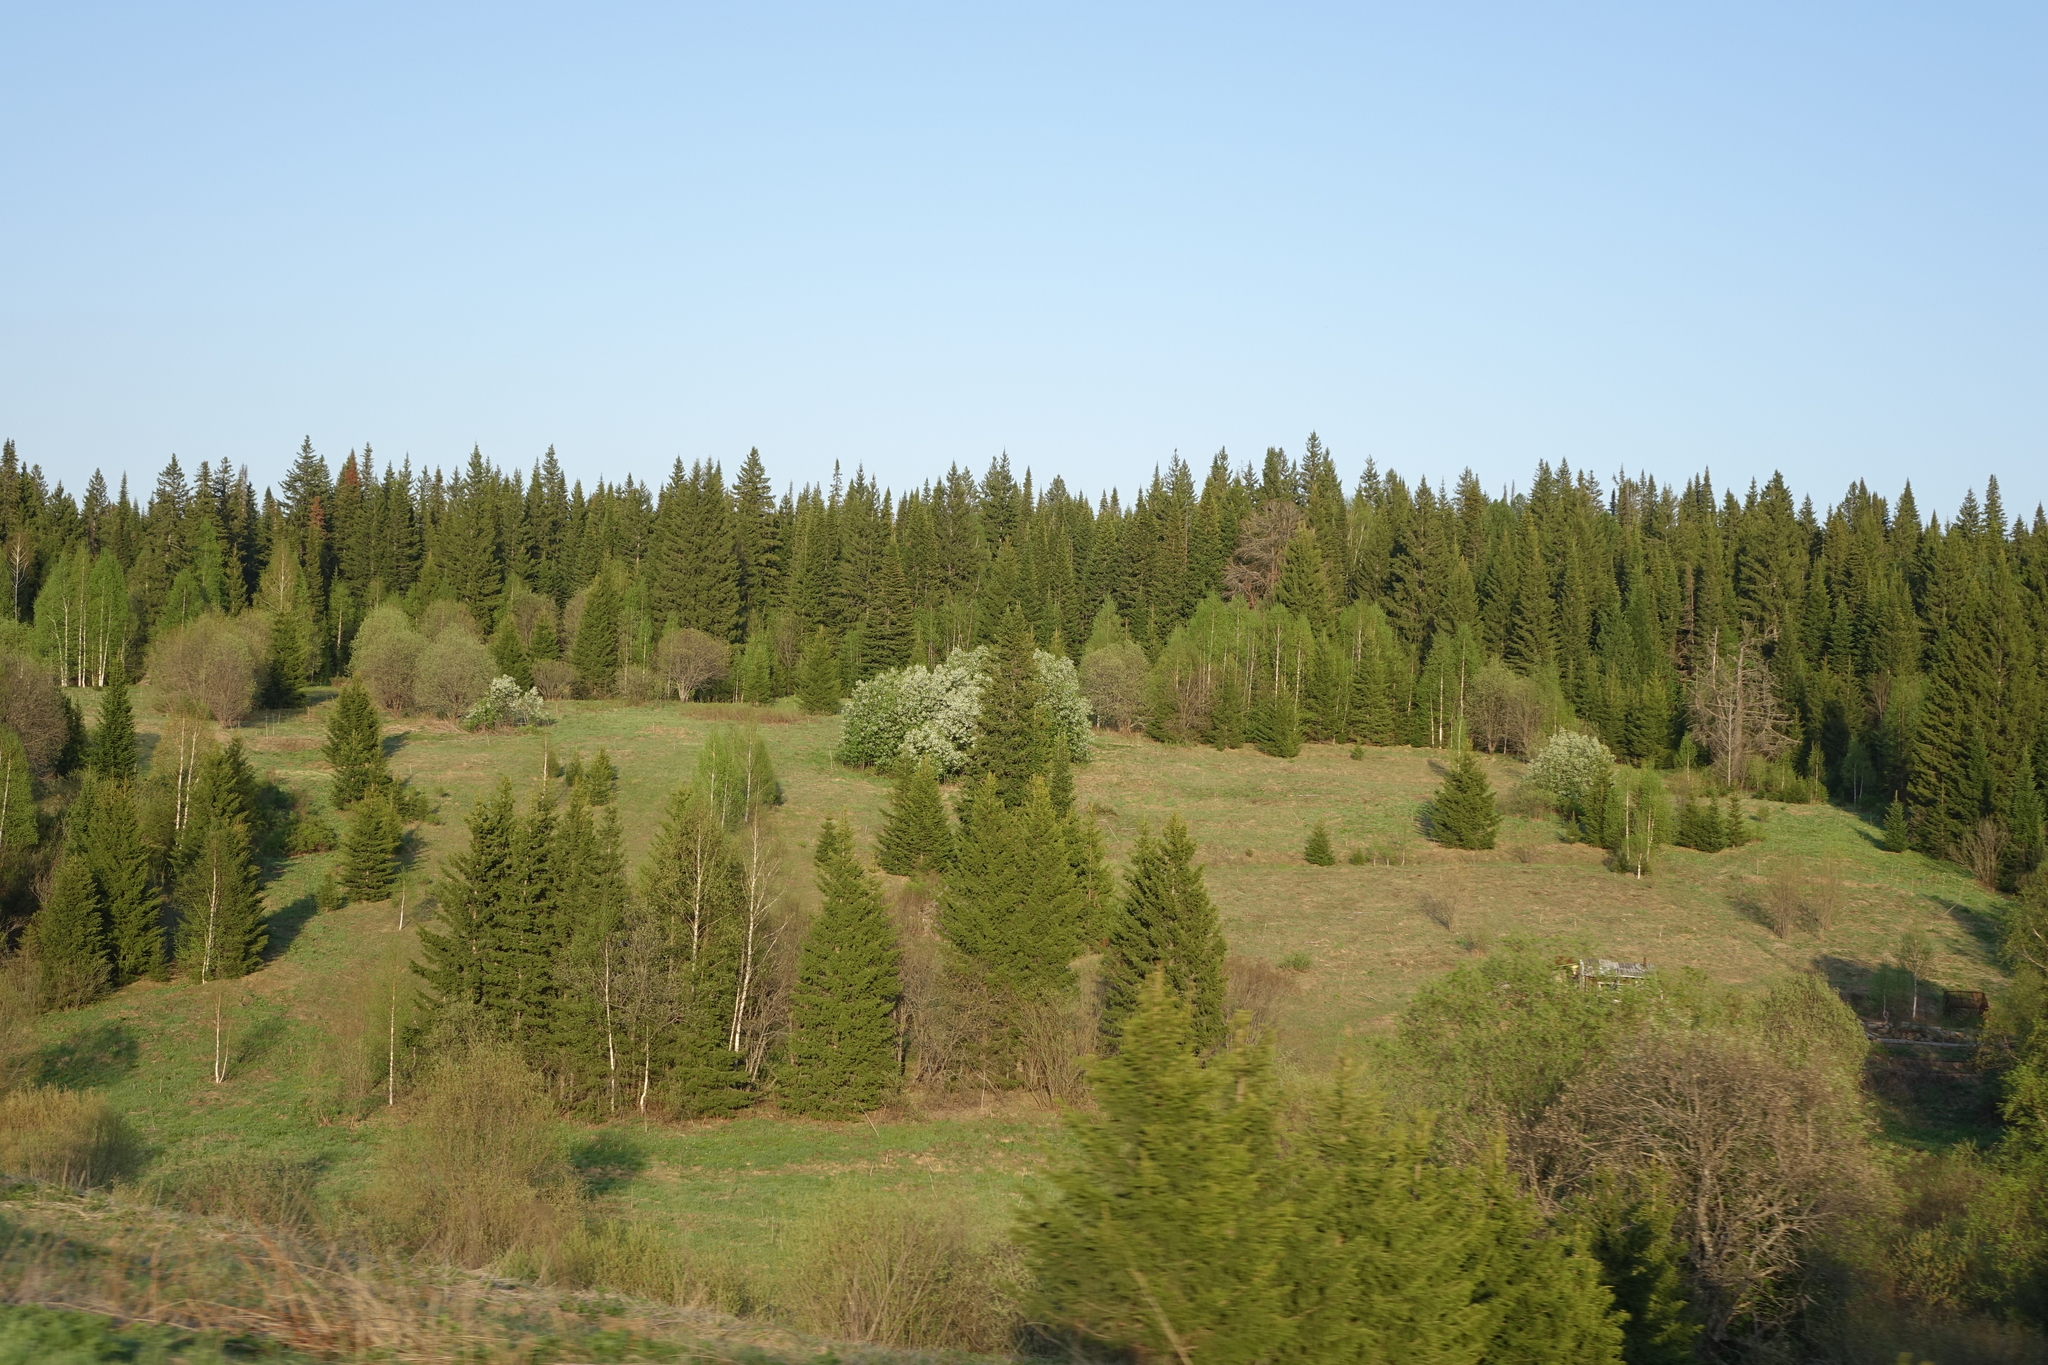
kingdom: Plantae
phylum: Tracheophyta
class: Pinopsida
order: Pinales
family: Pinaceae
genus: Picea
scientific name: Picea obovata
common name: Siberian spruce
